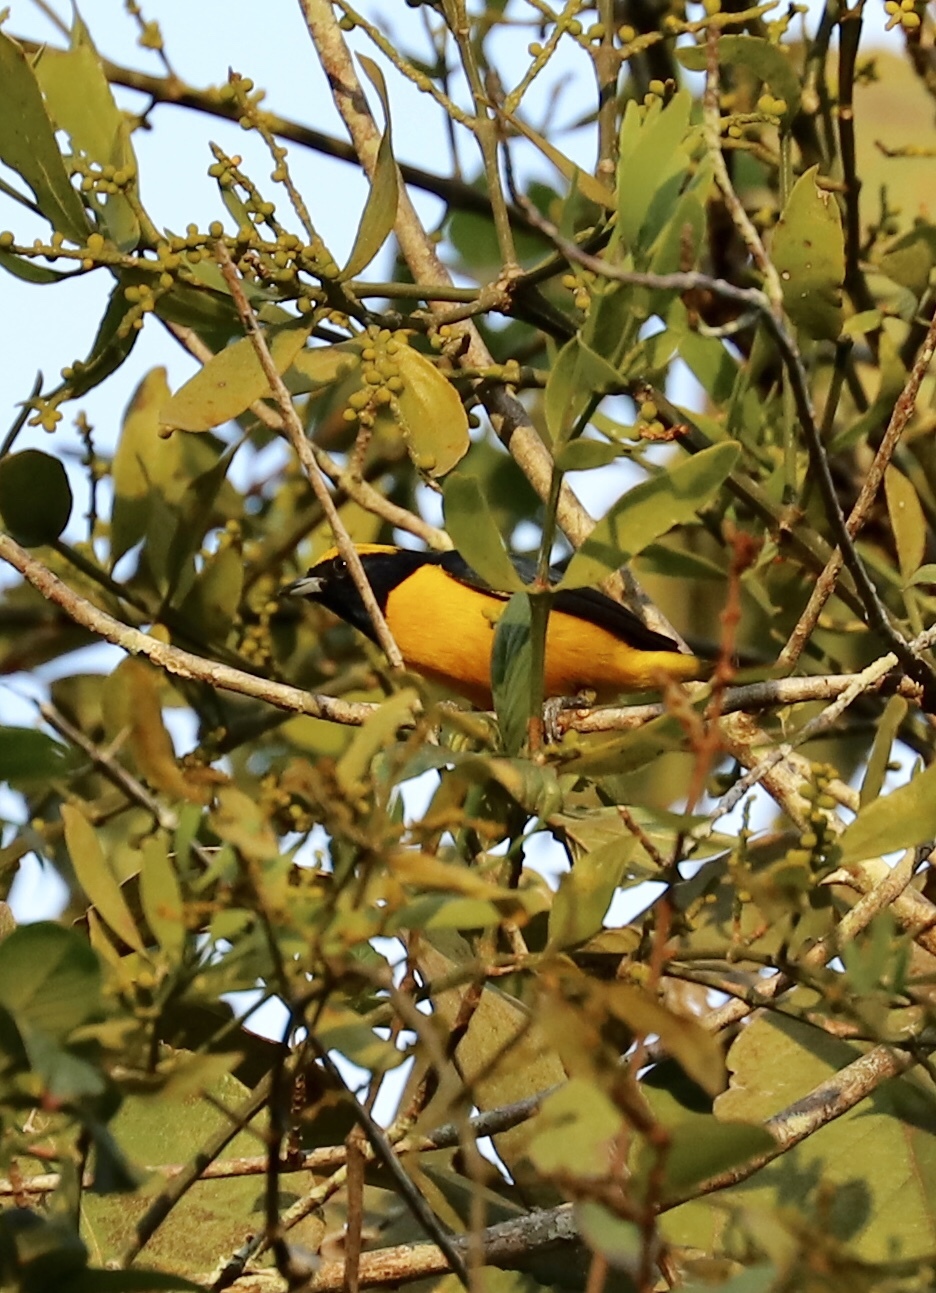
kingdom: Animalia
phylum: Chordata
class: Aves
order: Passeriformes
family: Fringillidae
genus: Euphonia
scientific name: Euphonia luteicapilla
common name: Yellow-crowned euphonia
